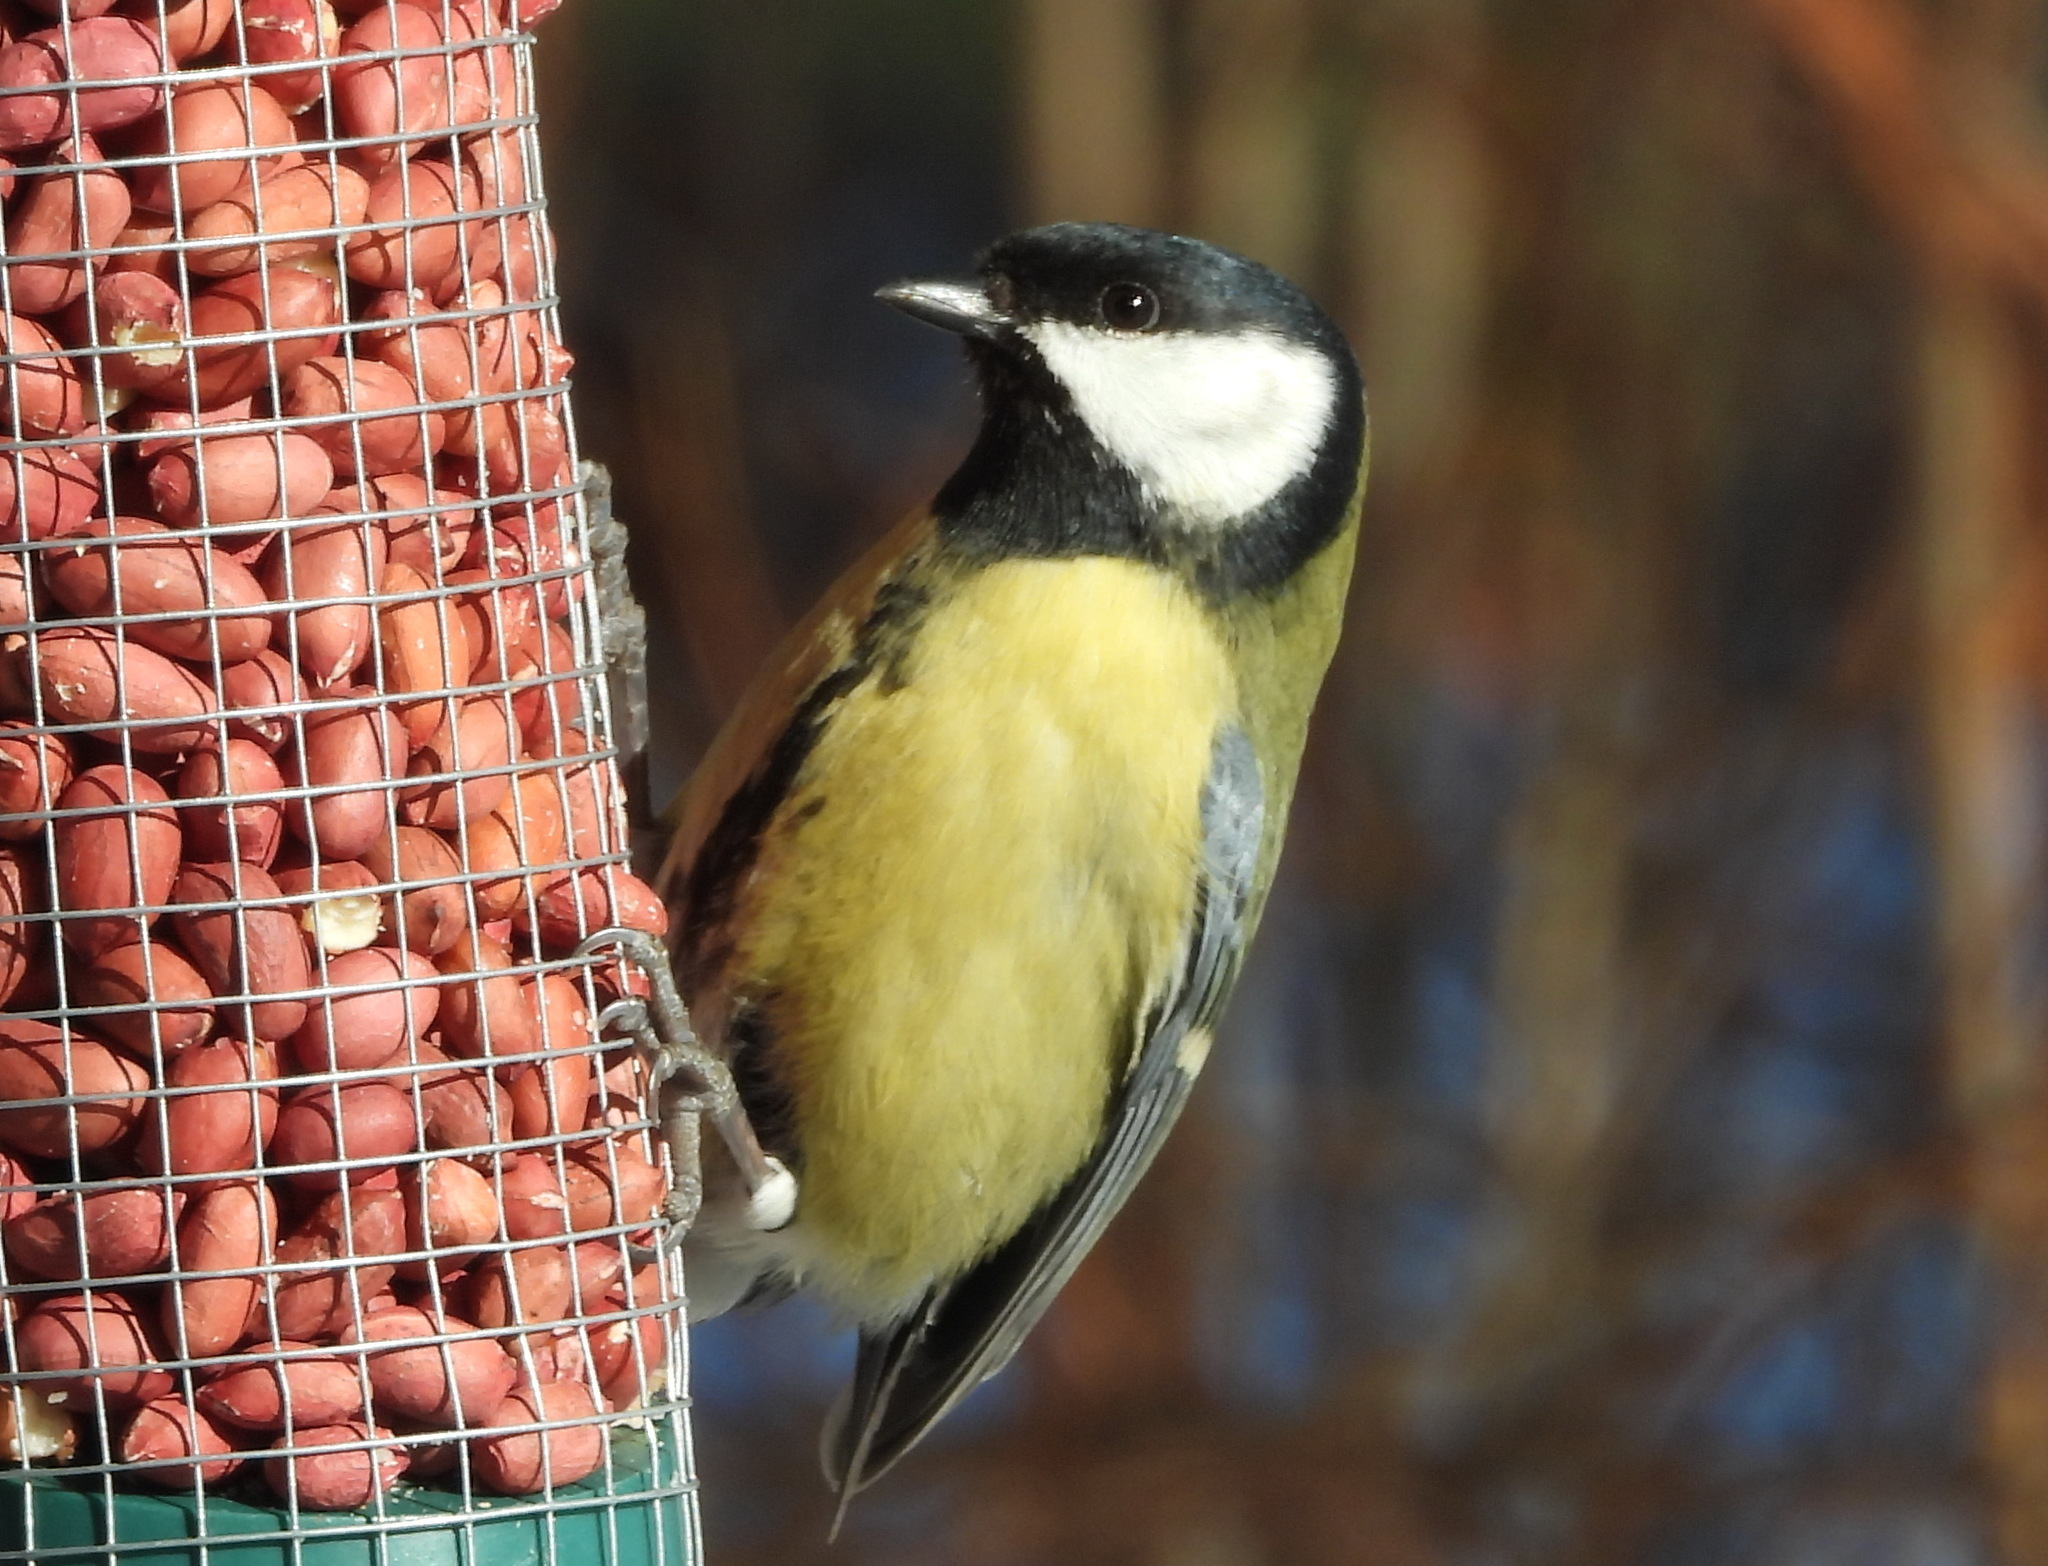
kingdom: Animalia
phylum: Chordata
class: Aves
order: Passeriformes
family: Paridae
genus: Parus
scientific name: Parus major
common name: Great tit
